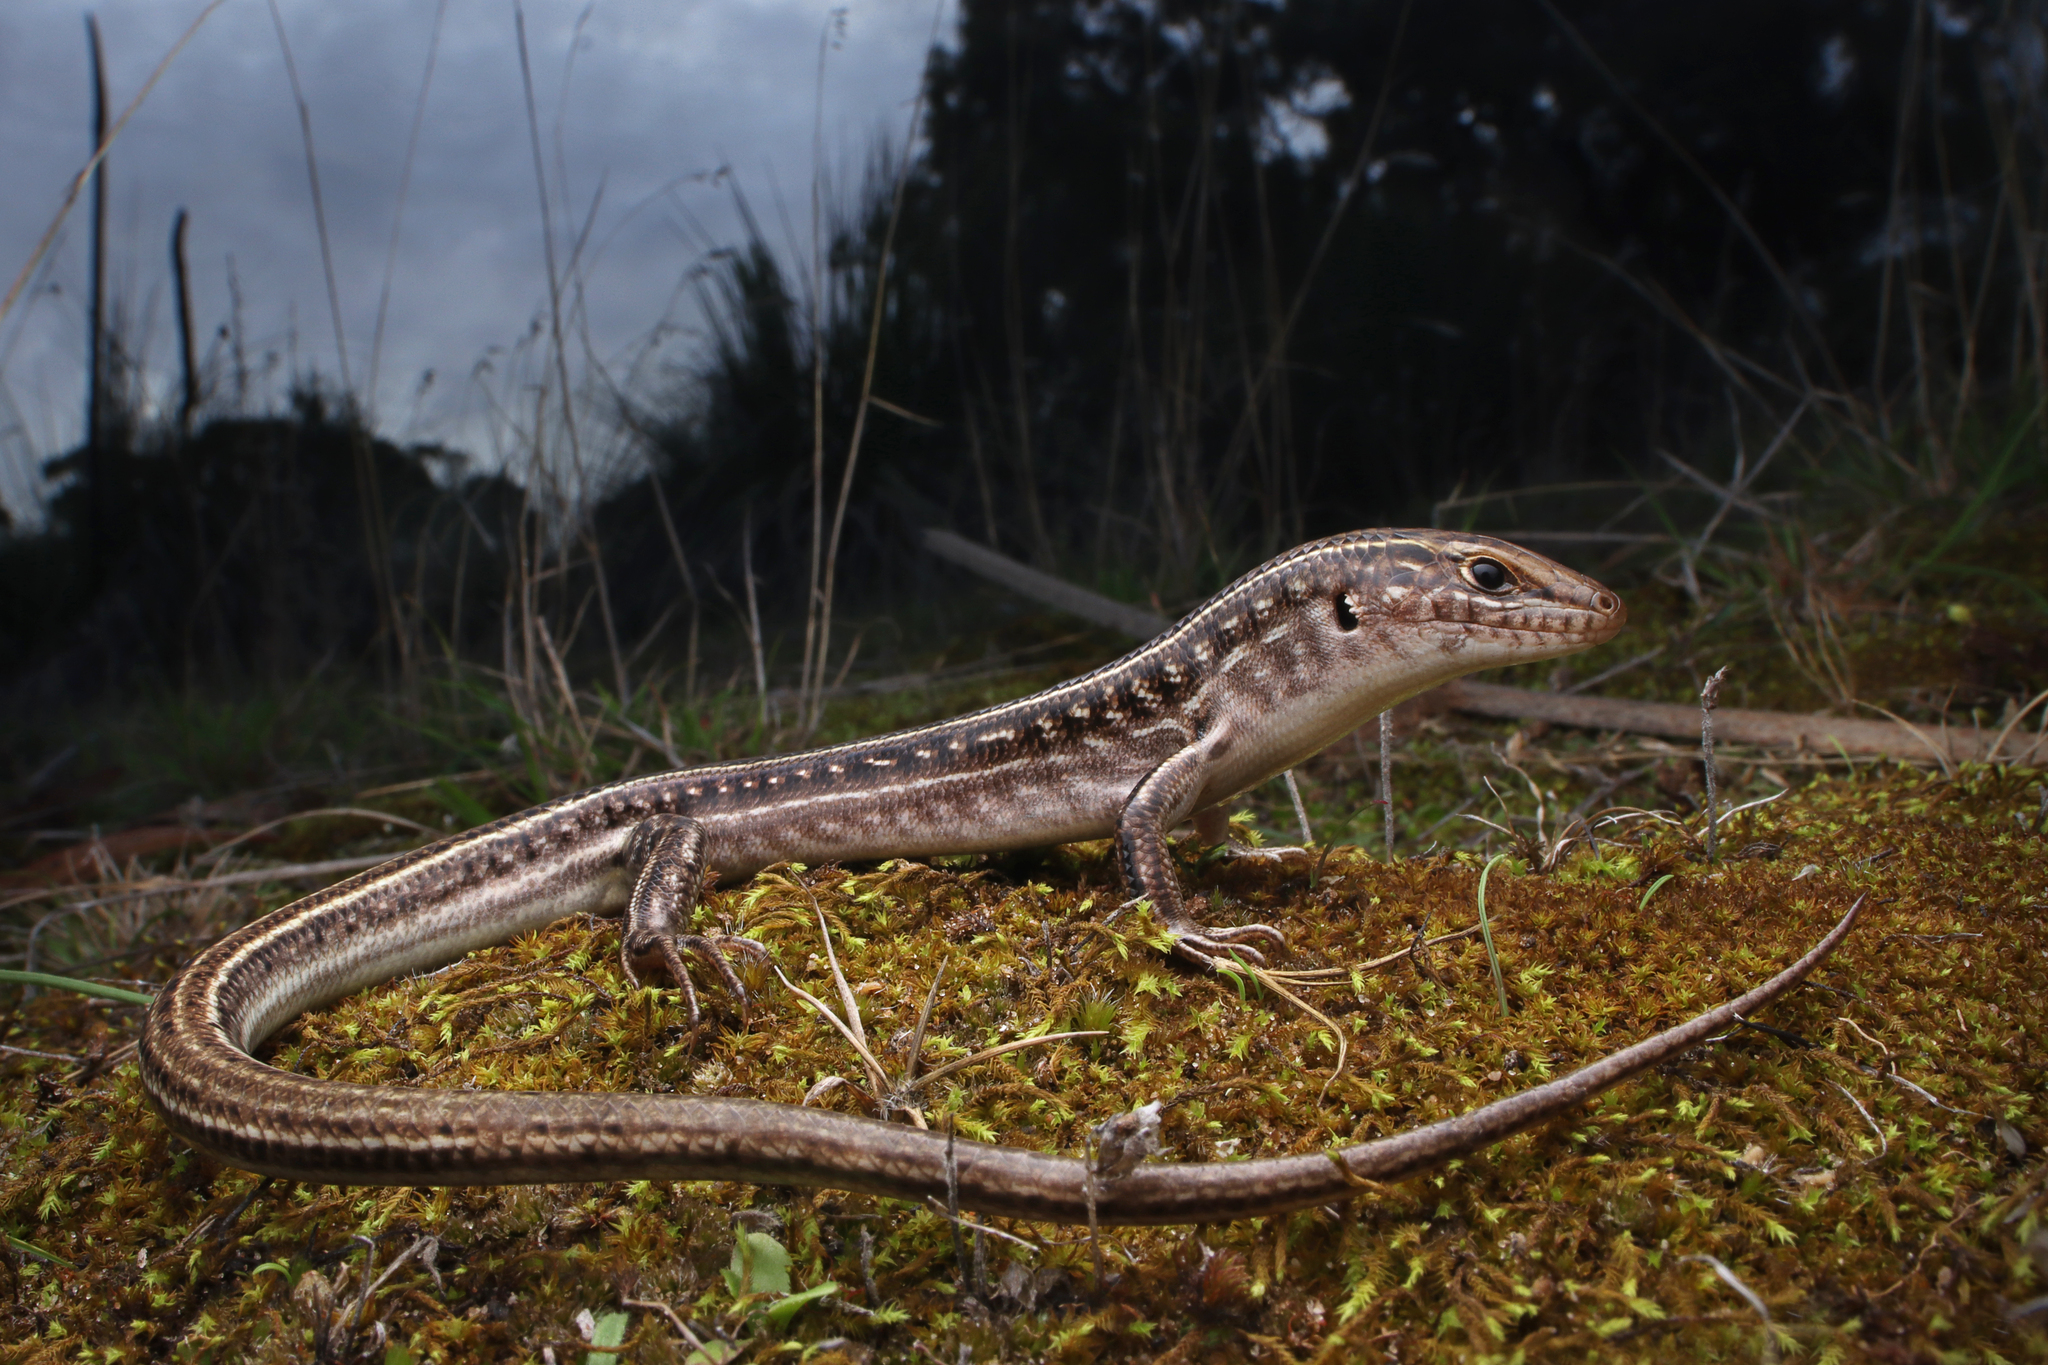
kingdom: Animalia
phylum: Chordata
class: Squamata
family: Scincidae
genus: Ctenotus
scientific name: Ctenotus robustus
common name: Robust ctenotus
